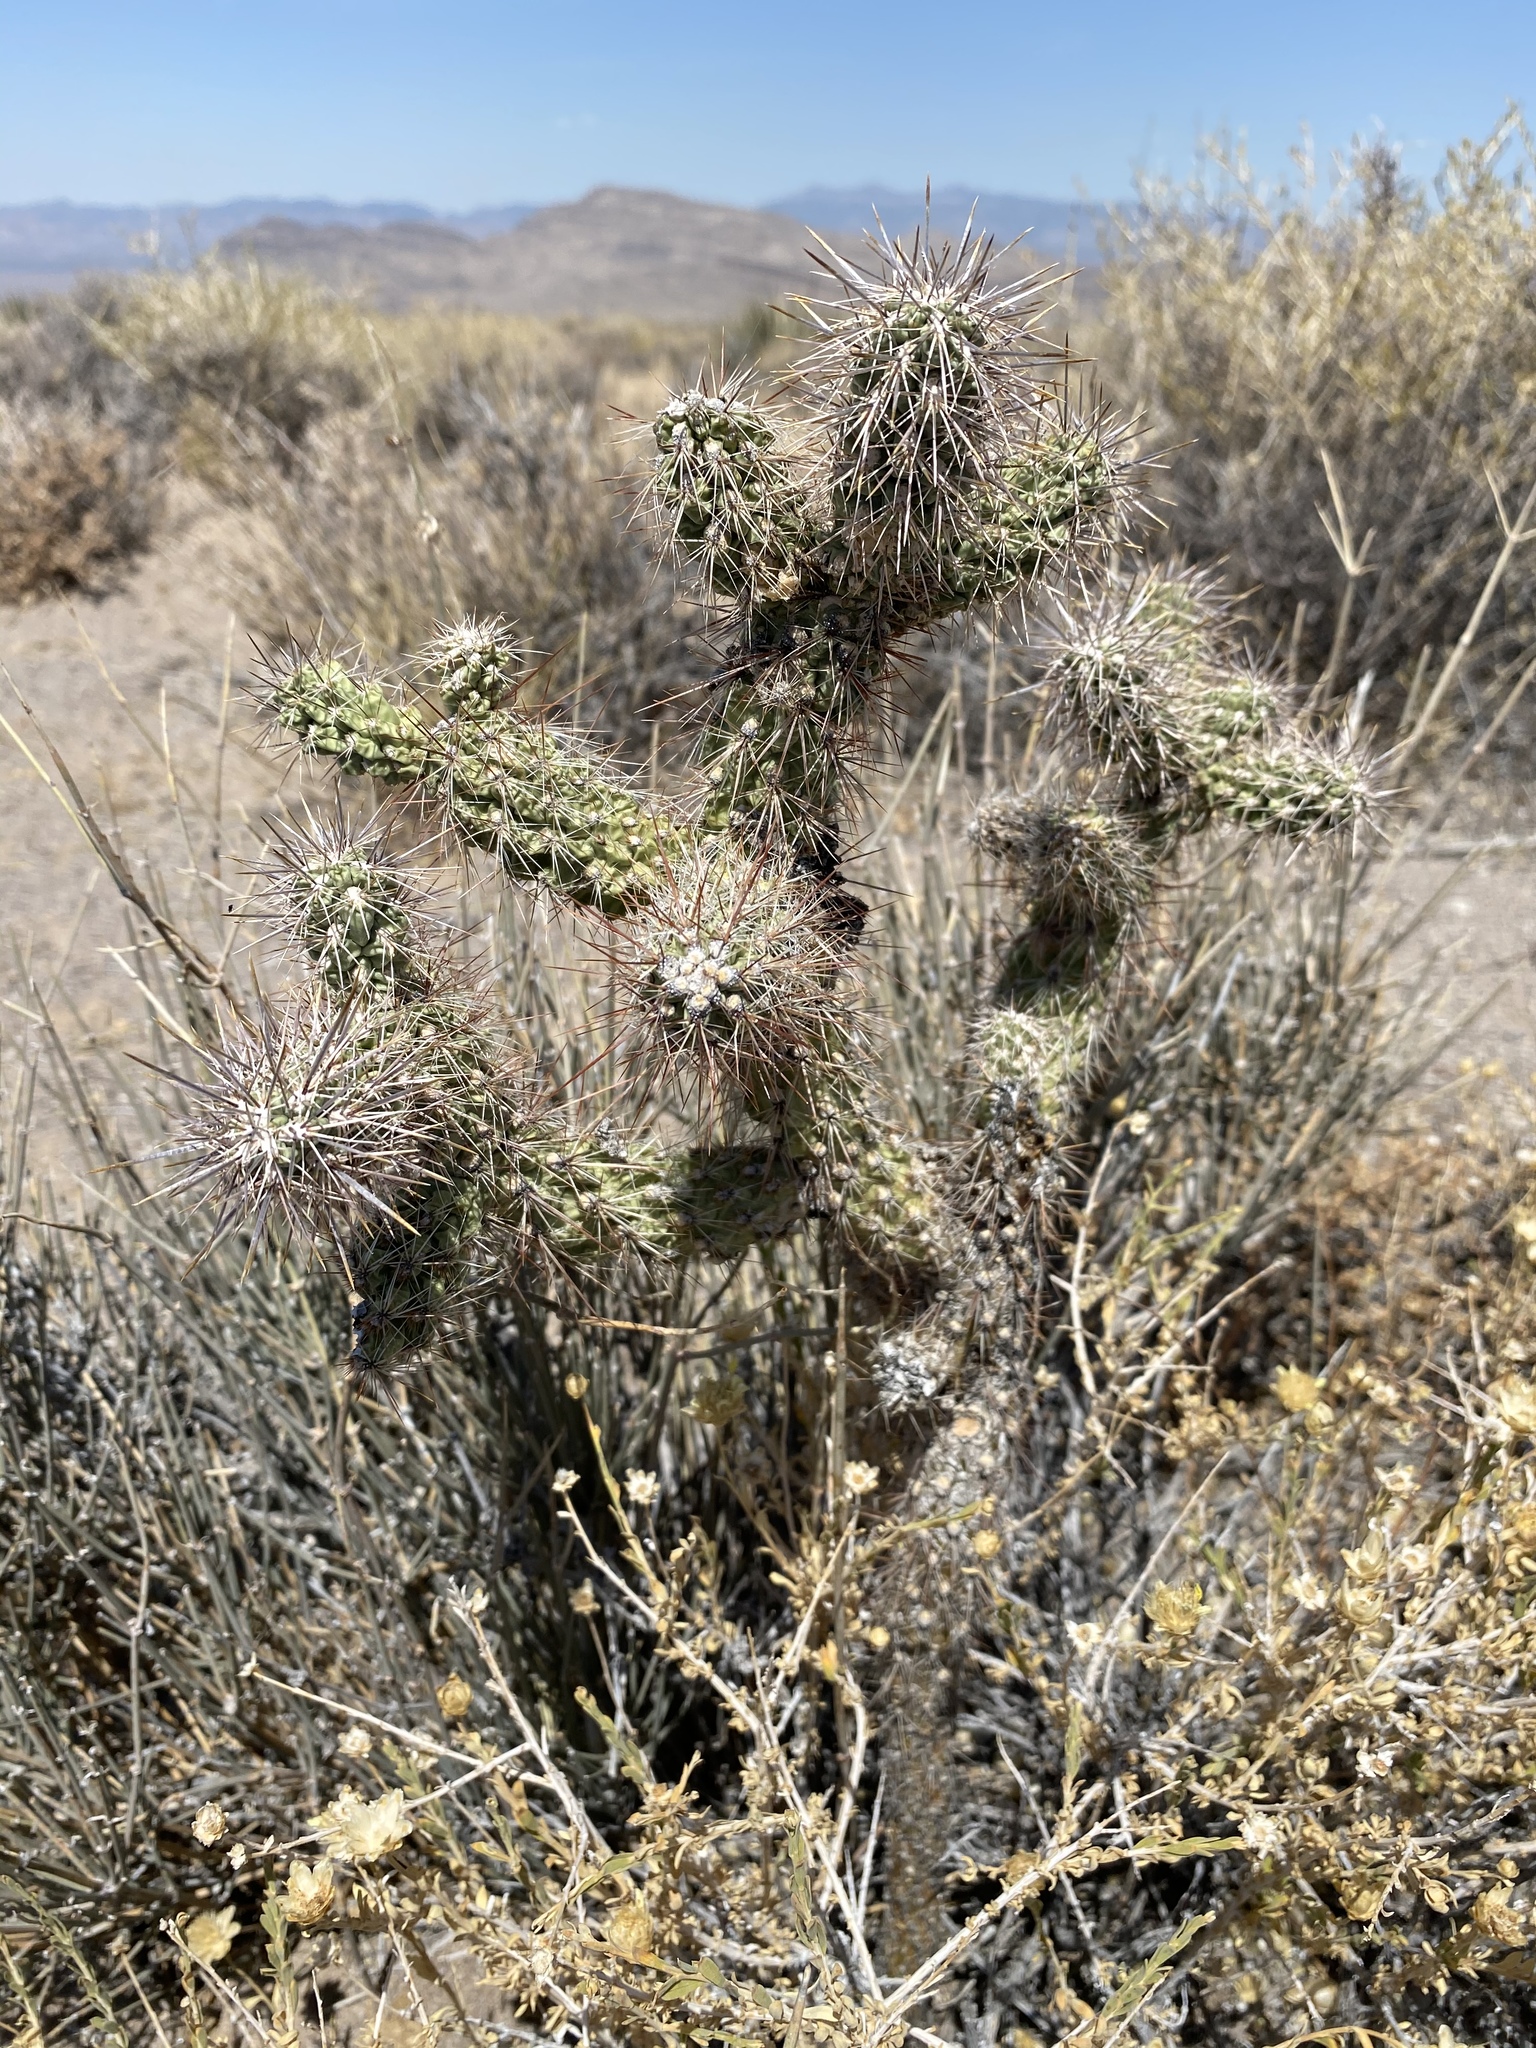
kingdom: Plantae
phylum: Tracheophyta
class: Magnoliopsida
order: Caryophyllales
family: Cactaceae
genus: Cylindropuntia
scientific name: Cylindropuntia echinocarpa
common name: Ground cholla
